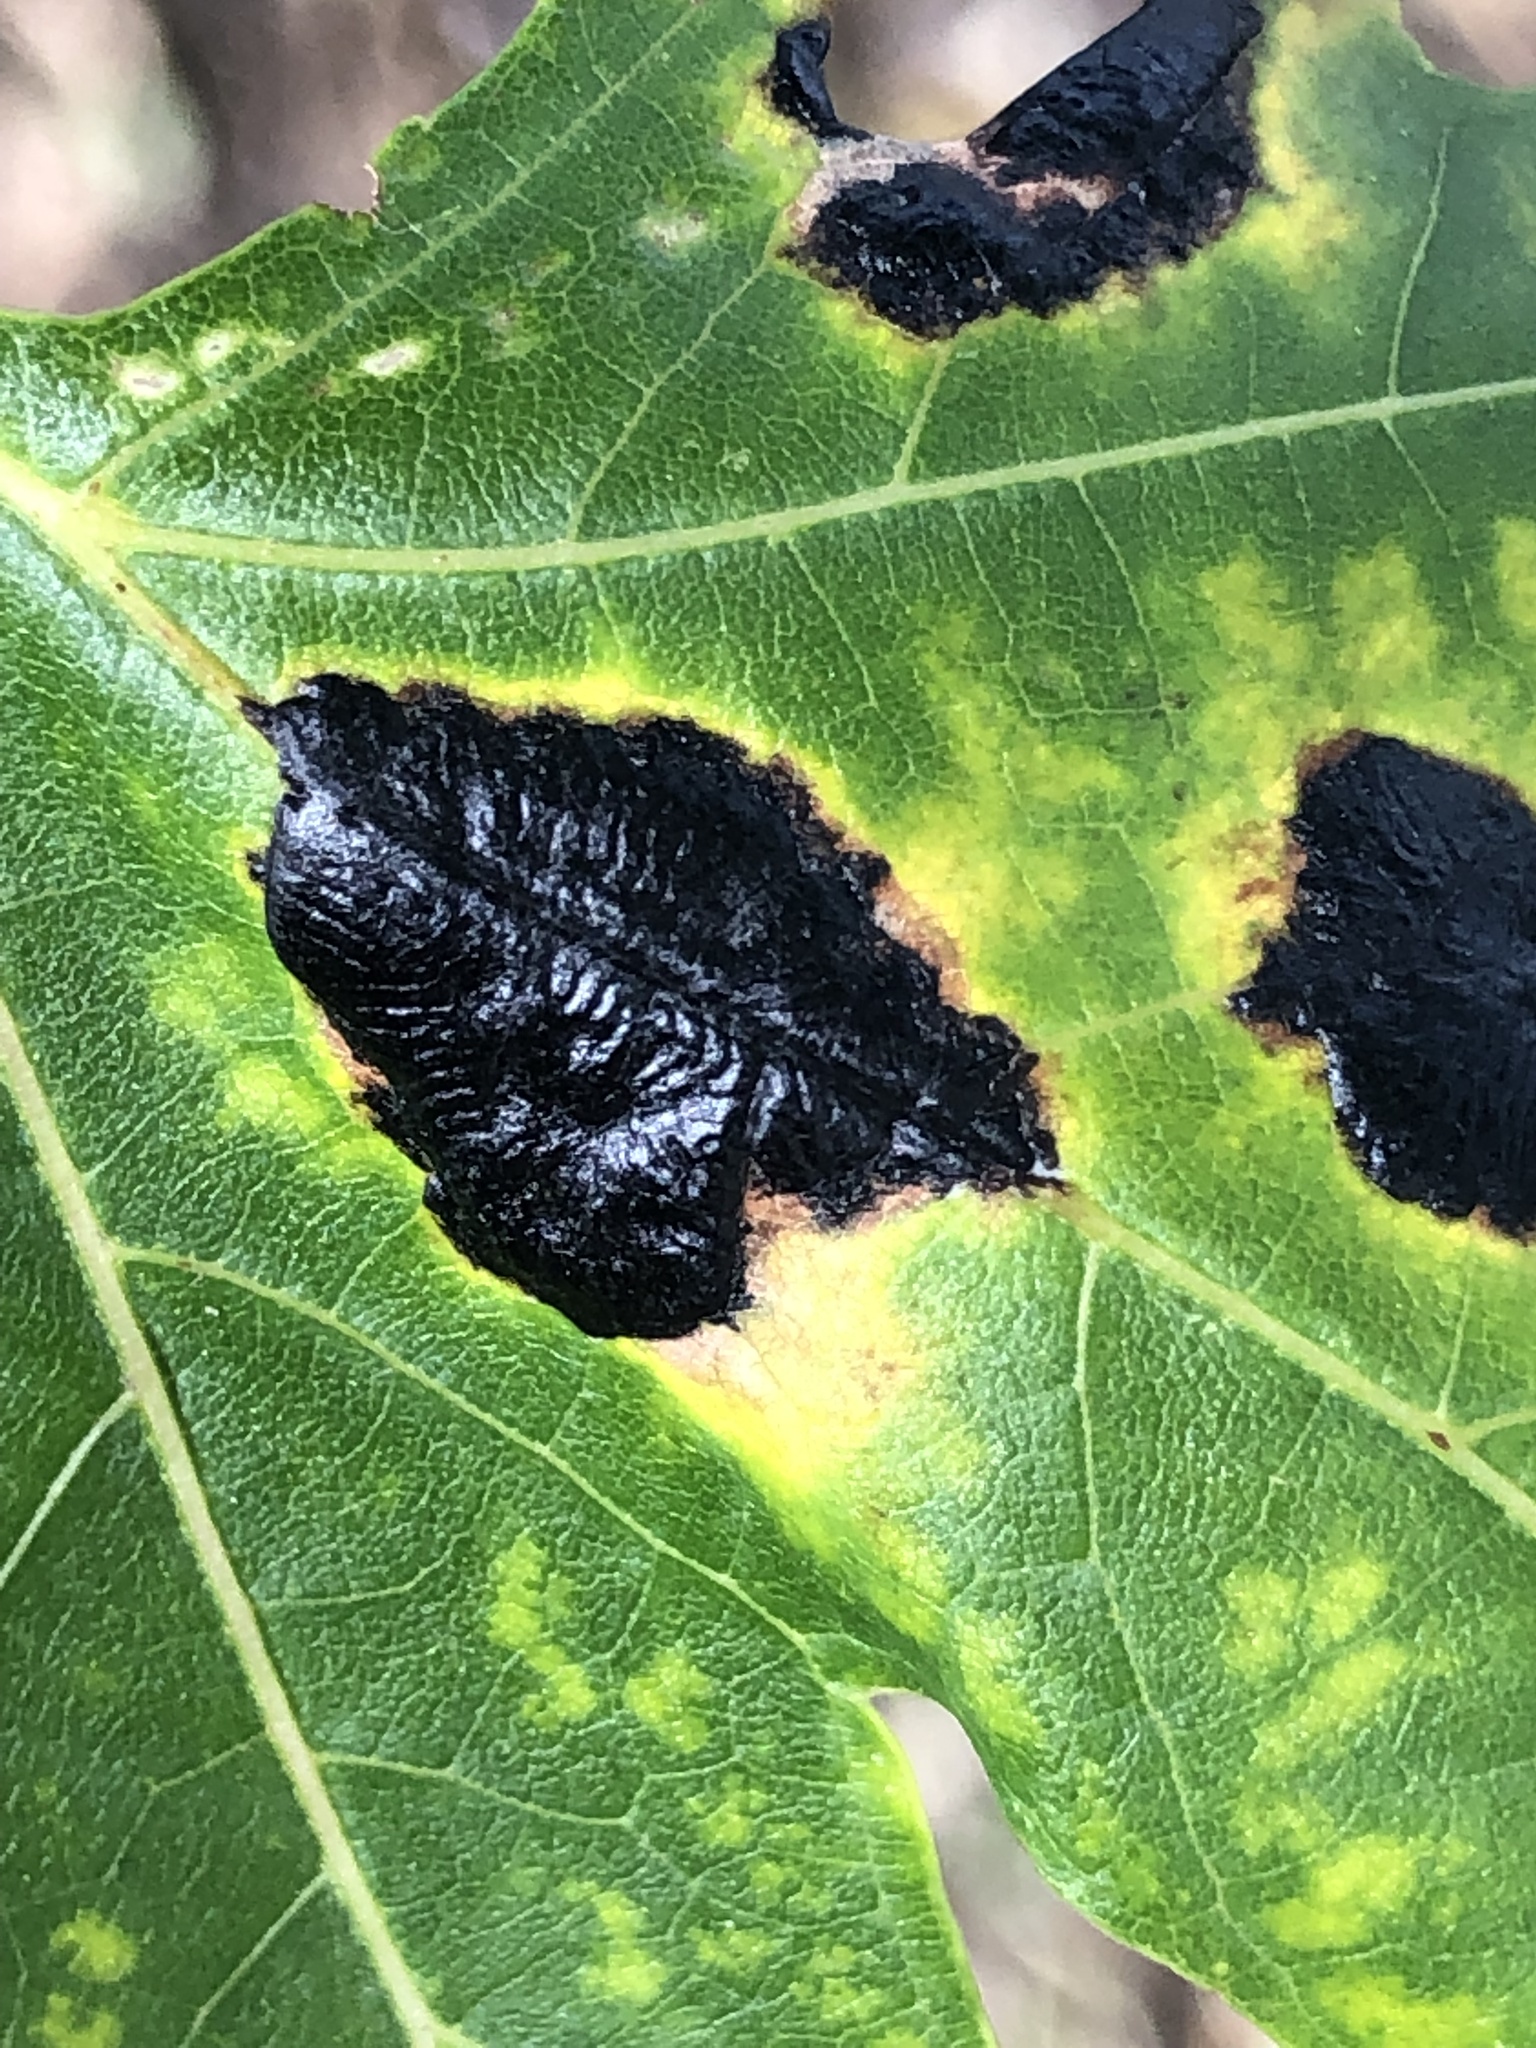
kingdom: Fungi
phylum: Ascomycota
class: Leotiomycetes
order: Rhytismatales
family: Rhytismataceae
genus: Rhytisma
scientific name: Rhytisma americanum
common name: American tar spot
